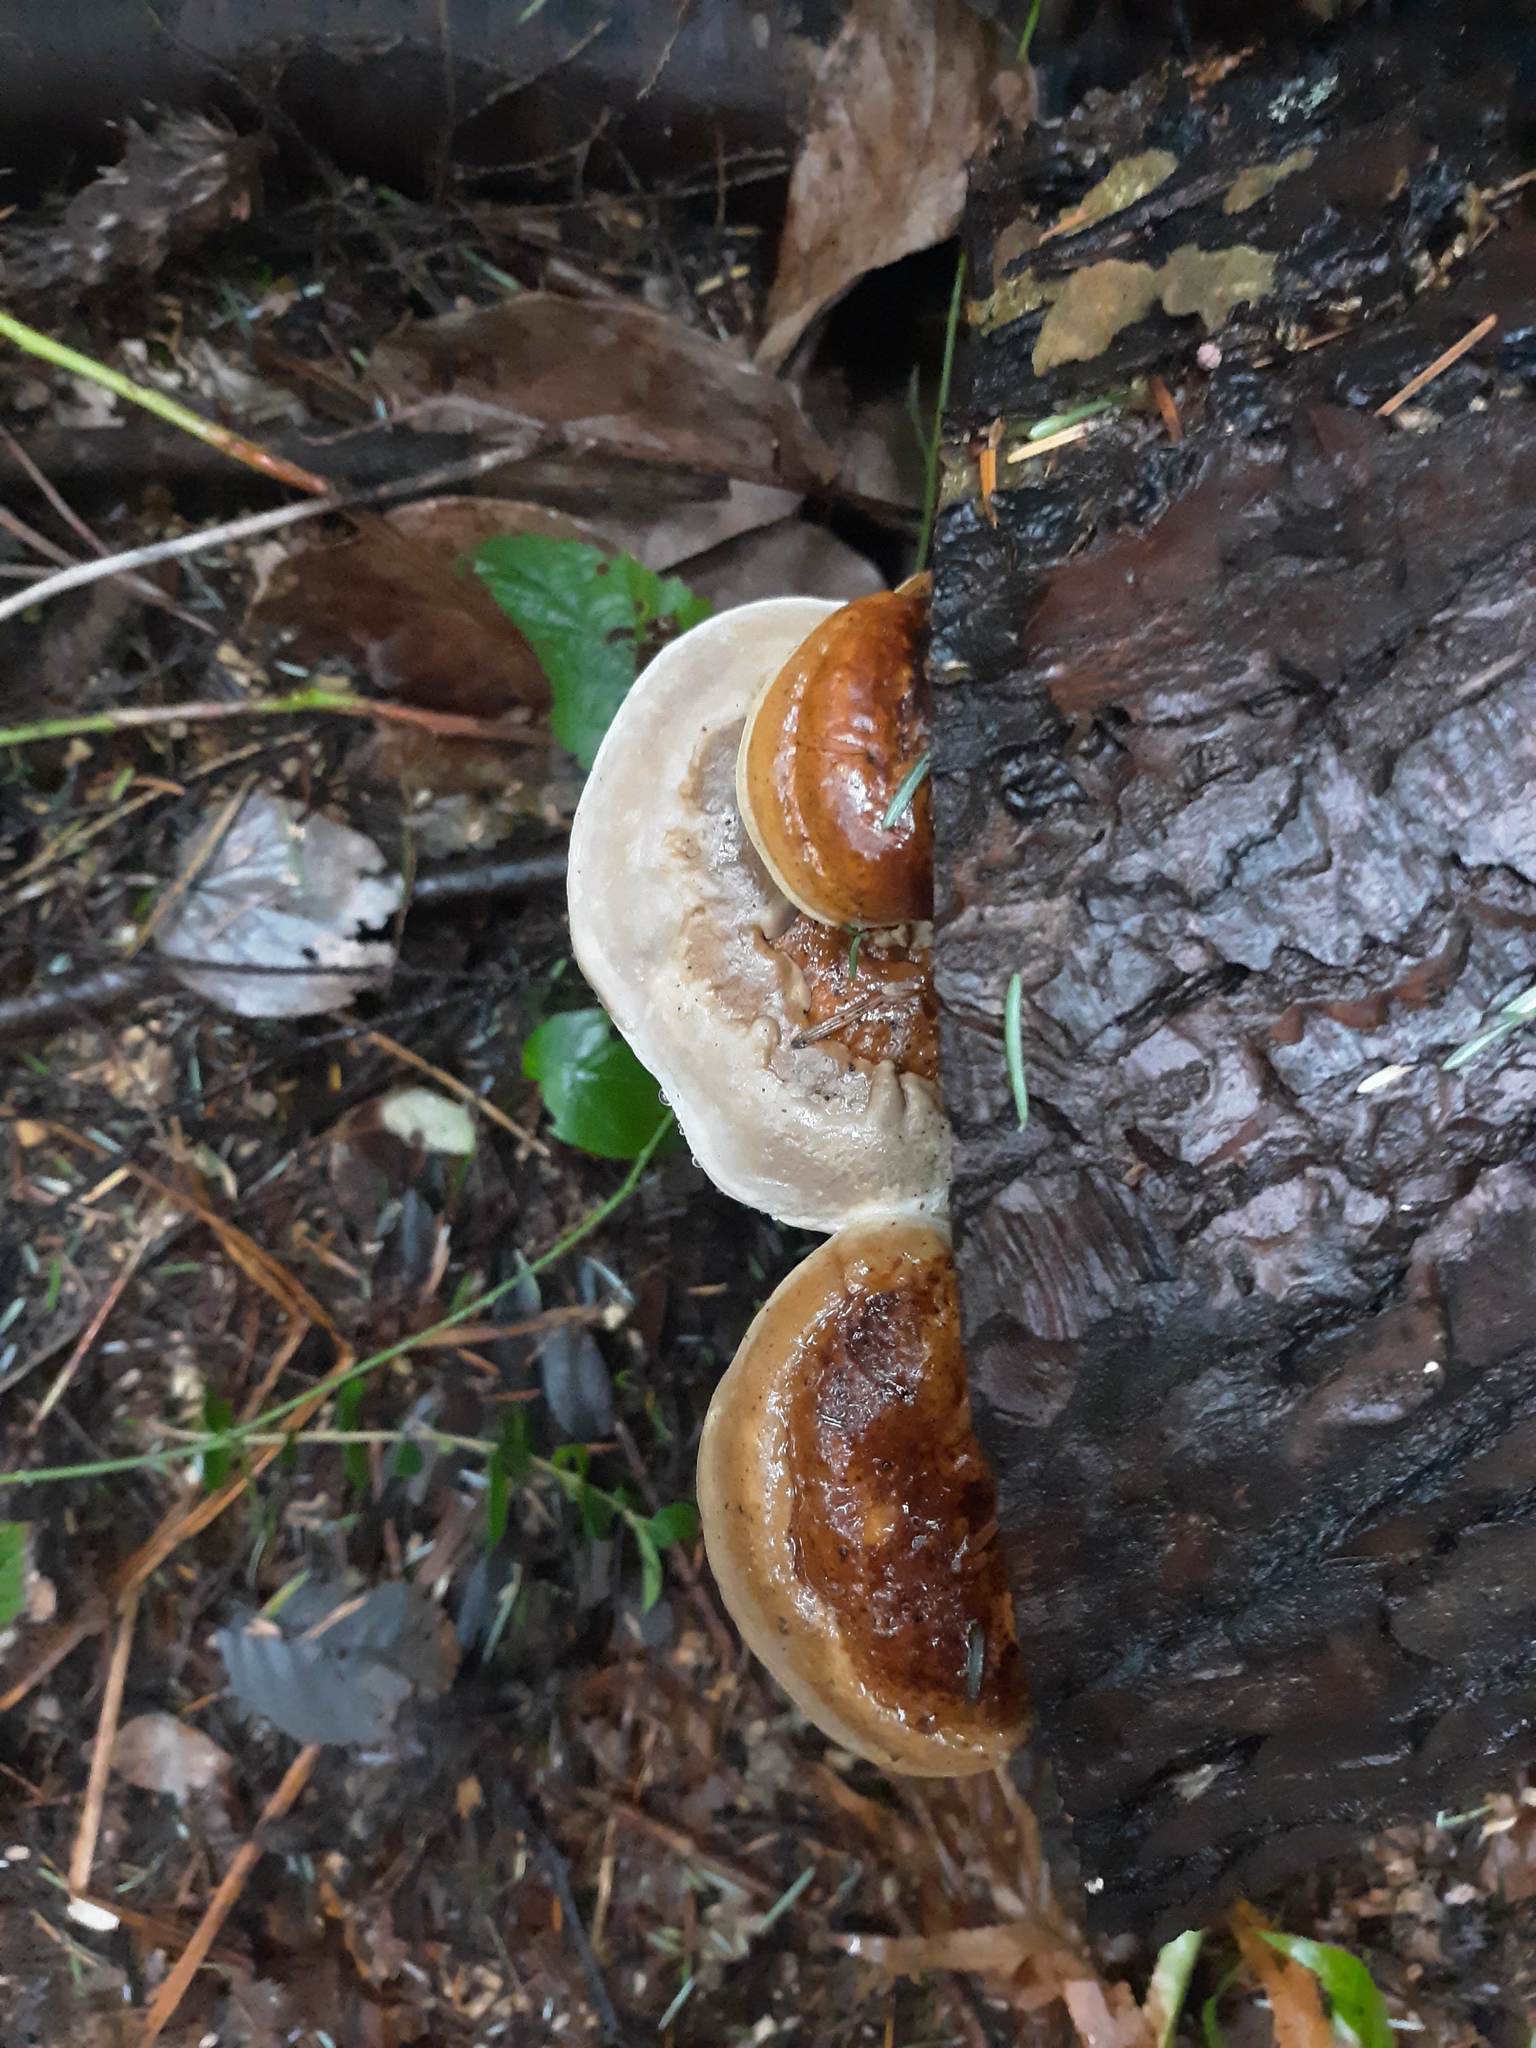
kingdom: Fungi
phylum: Basidiomycota
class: Agaricomycetes
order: Polyporales
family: Fomitopsidaceae
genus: Fomitopsis
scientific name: Fomitopsis mounceae
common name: Northern red belt
